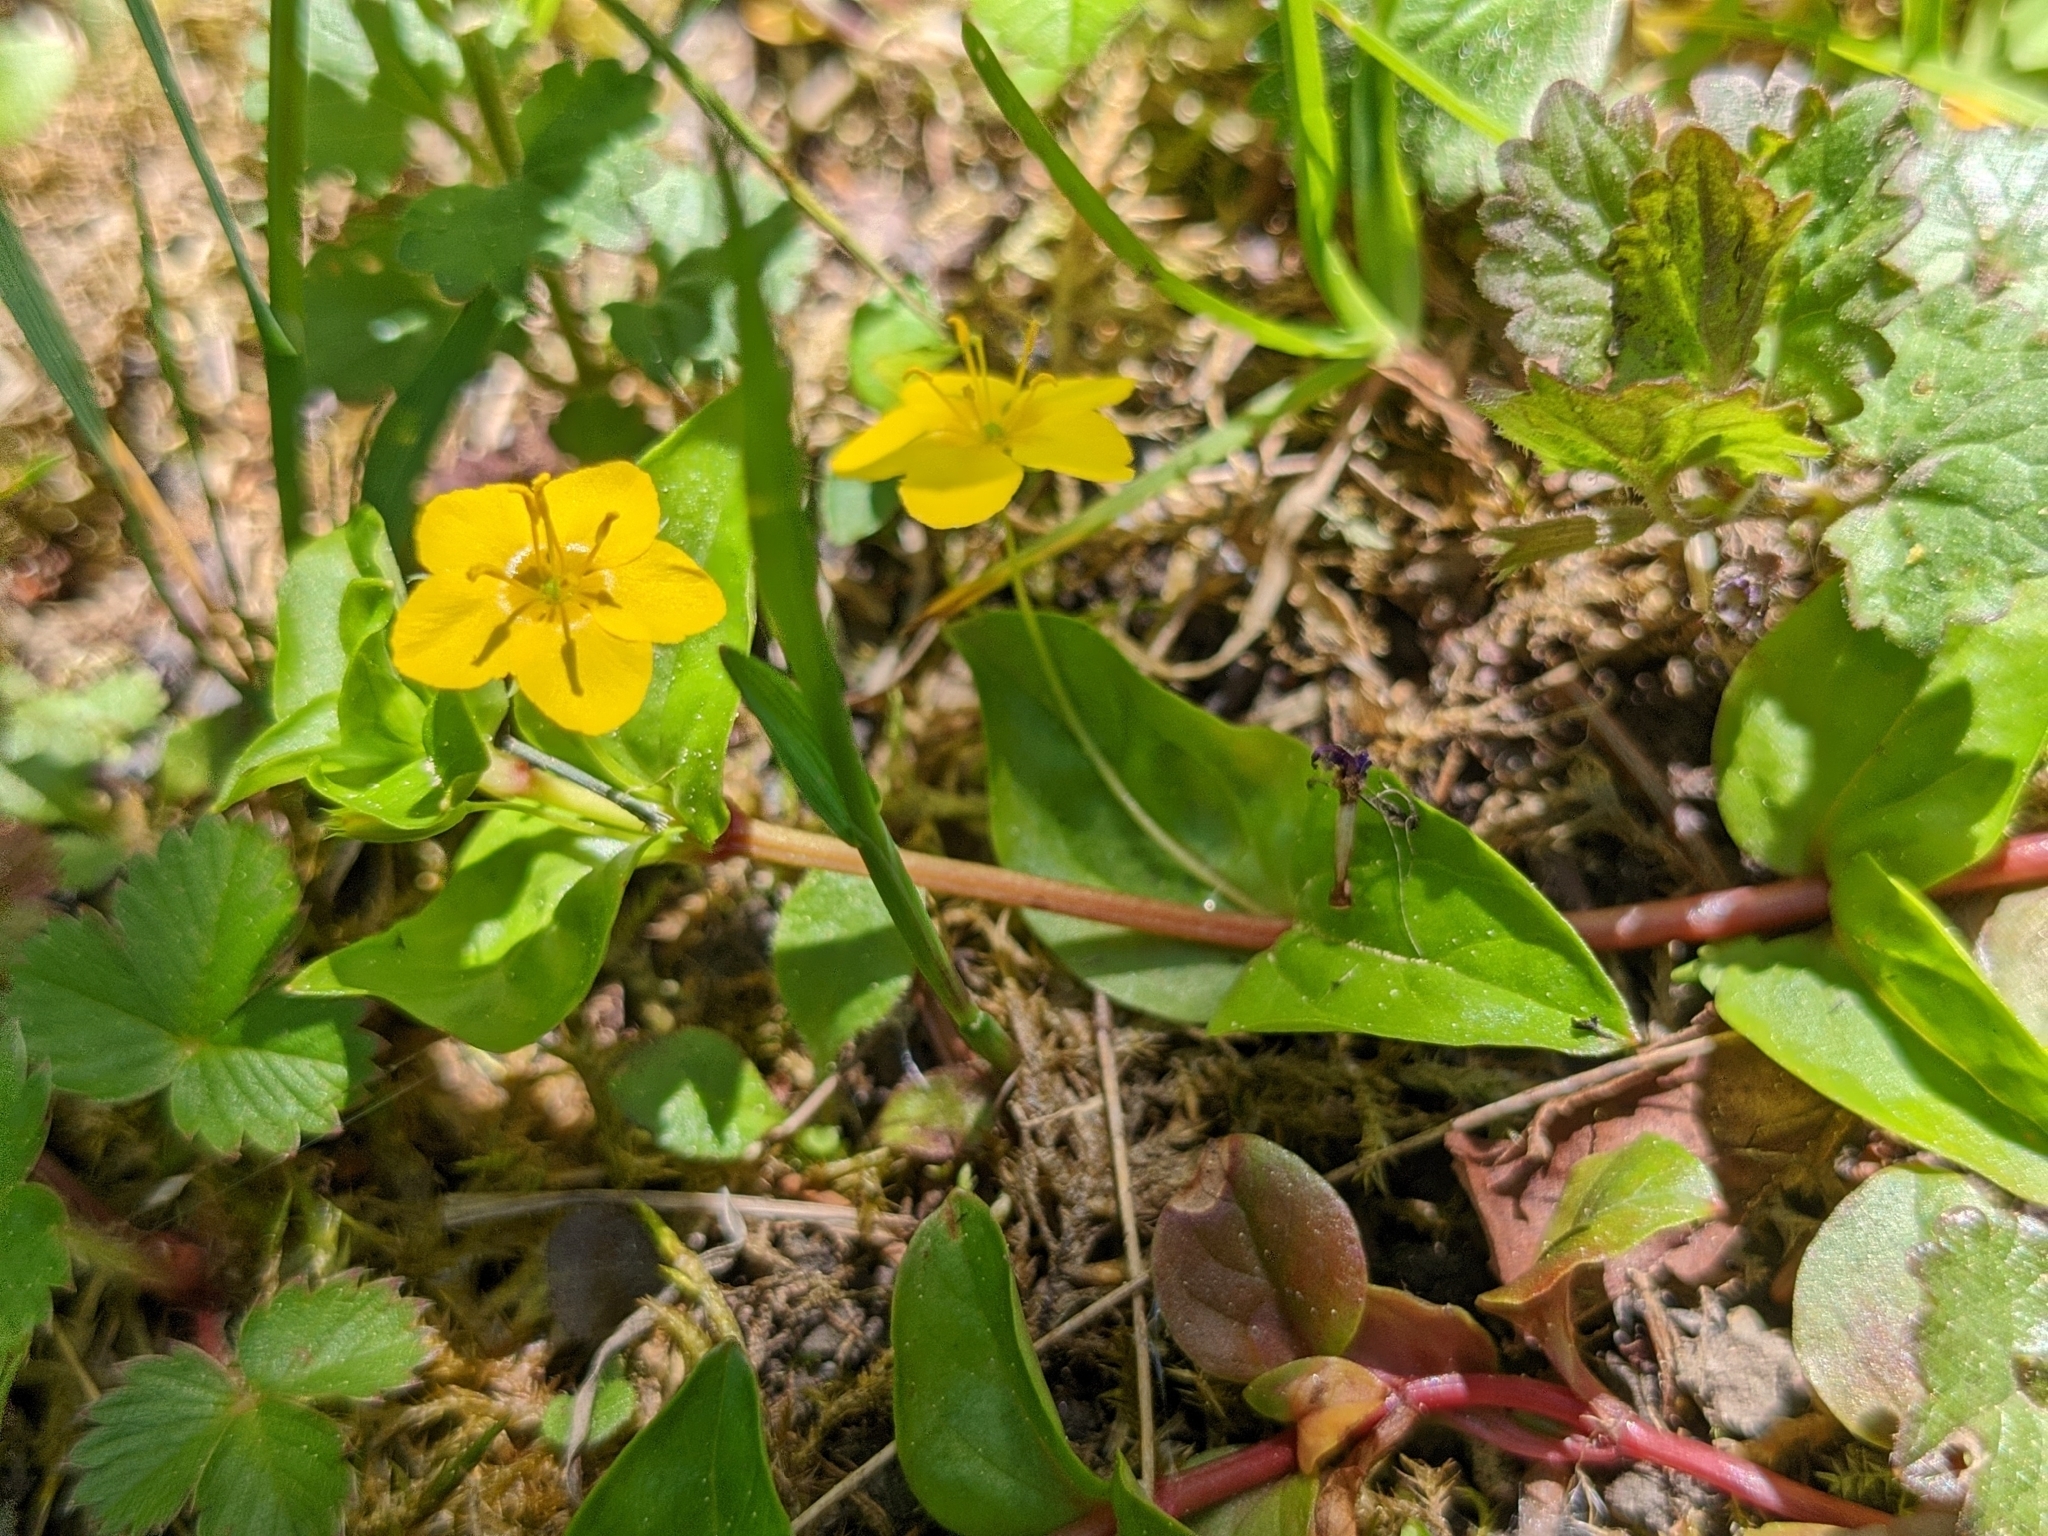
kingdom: Plantae
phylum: Tracheophyta
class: Magnoliopsida
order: Ericales
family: Primulaceae
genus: Lysimachia
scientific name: Lysimachia nemorum
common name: Yellow pimpernel
